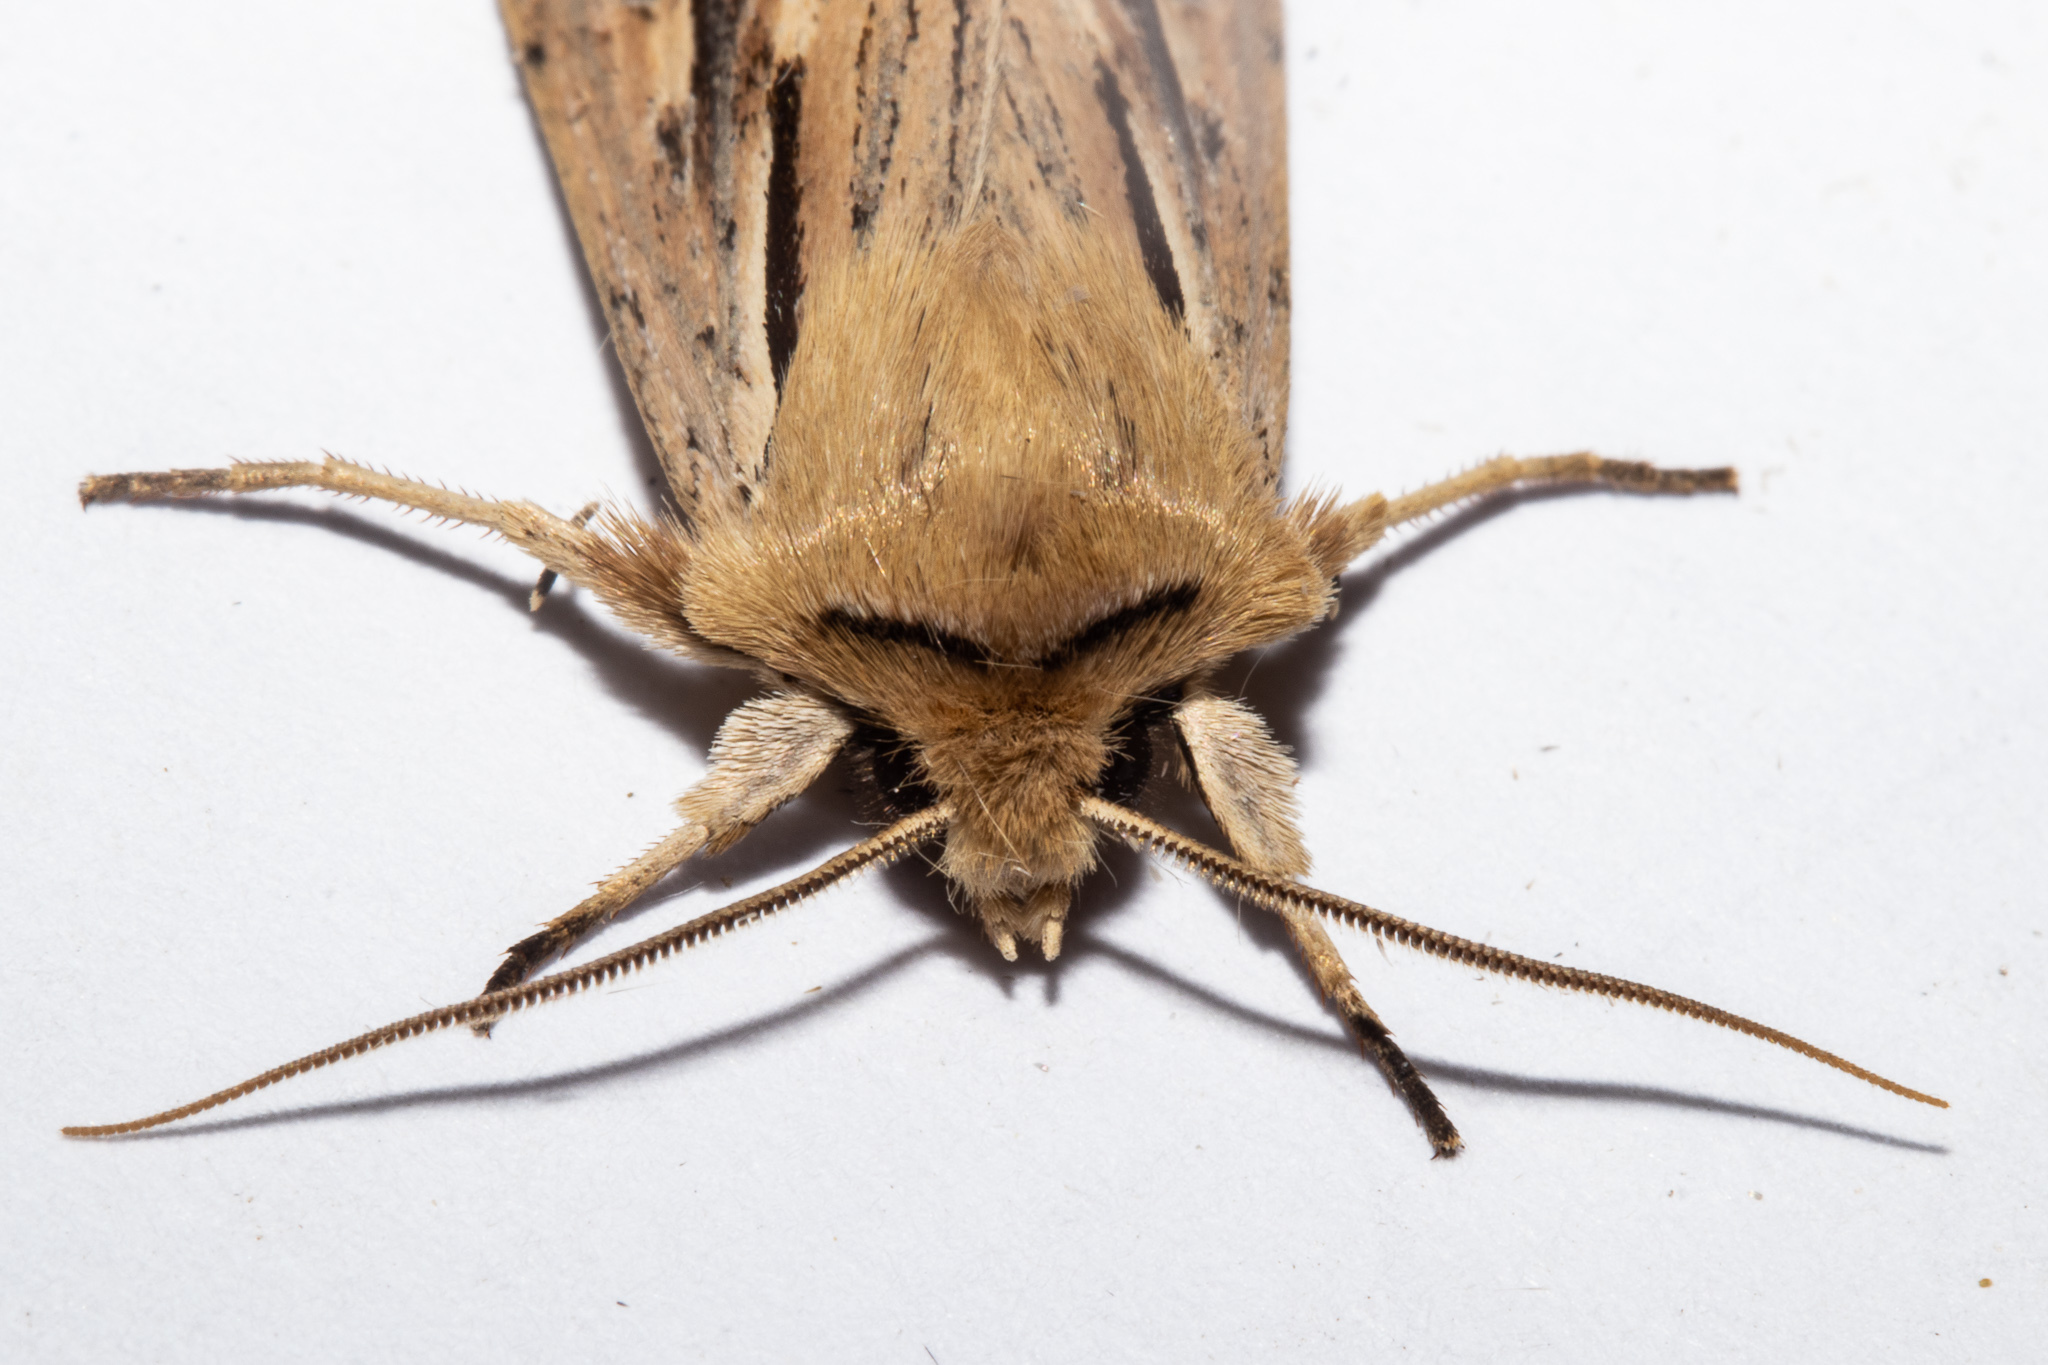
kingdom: Animalia
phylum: Arthropoda
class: Insecta
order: Lepidoptera
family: Noctuidae
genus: Ichneutica
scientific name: Ichneutica propria
